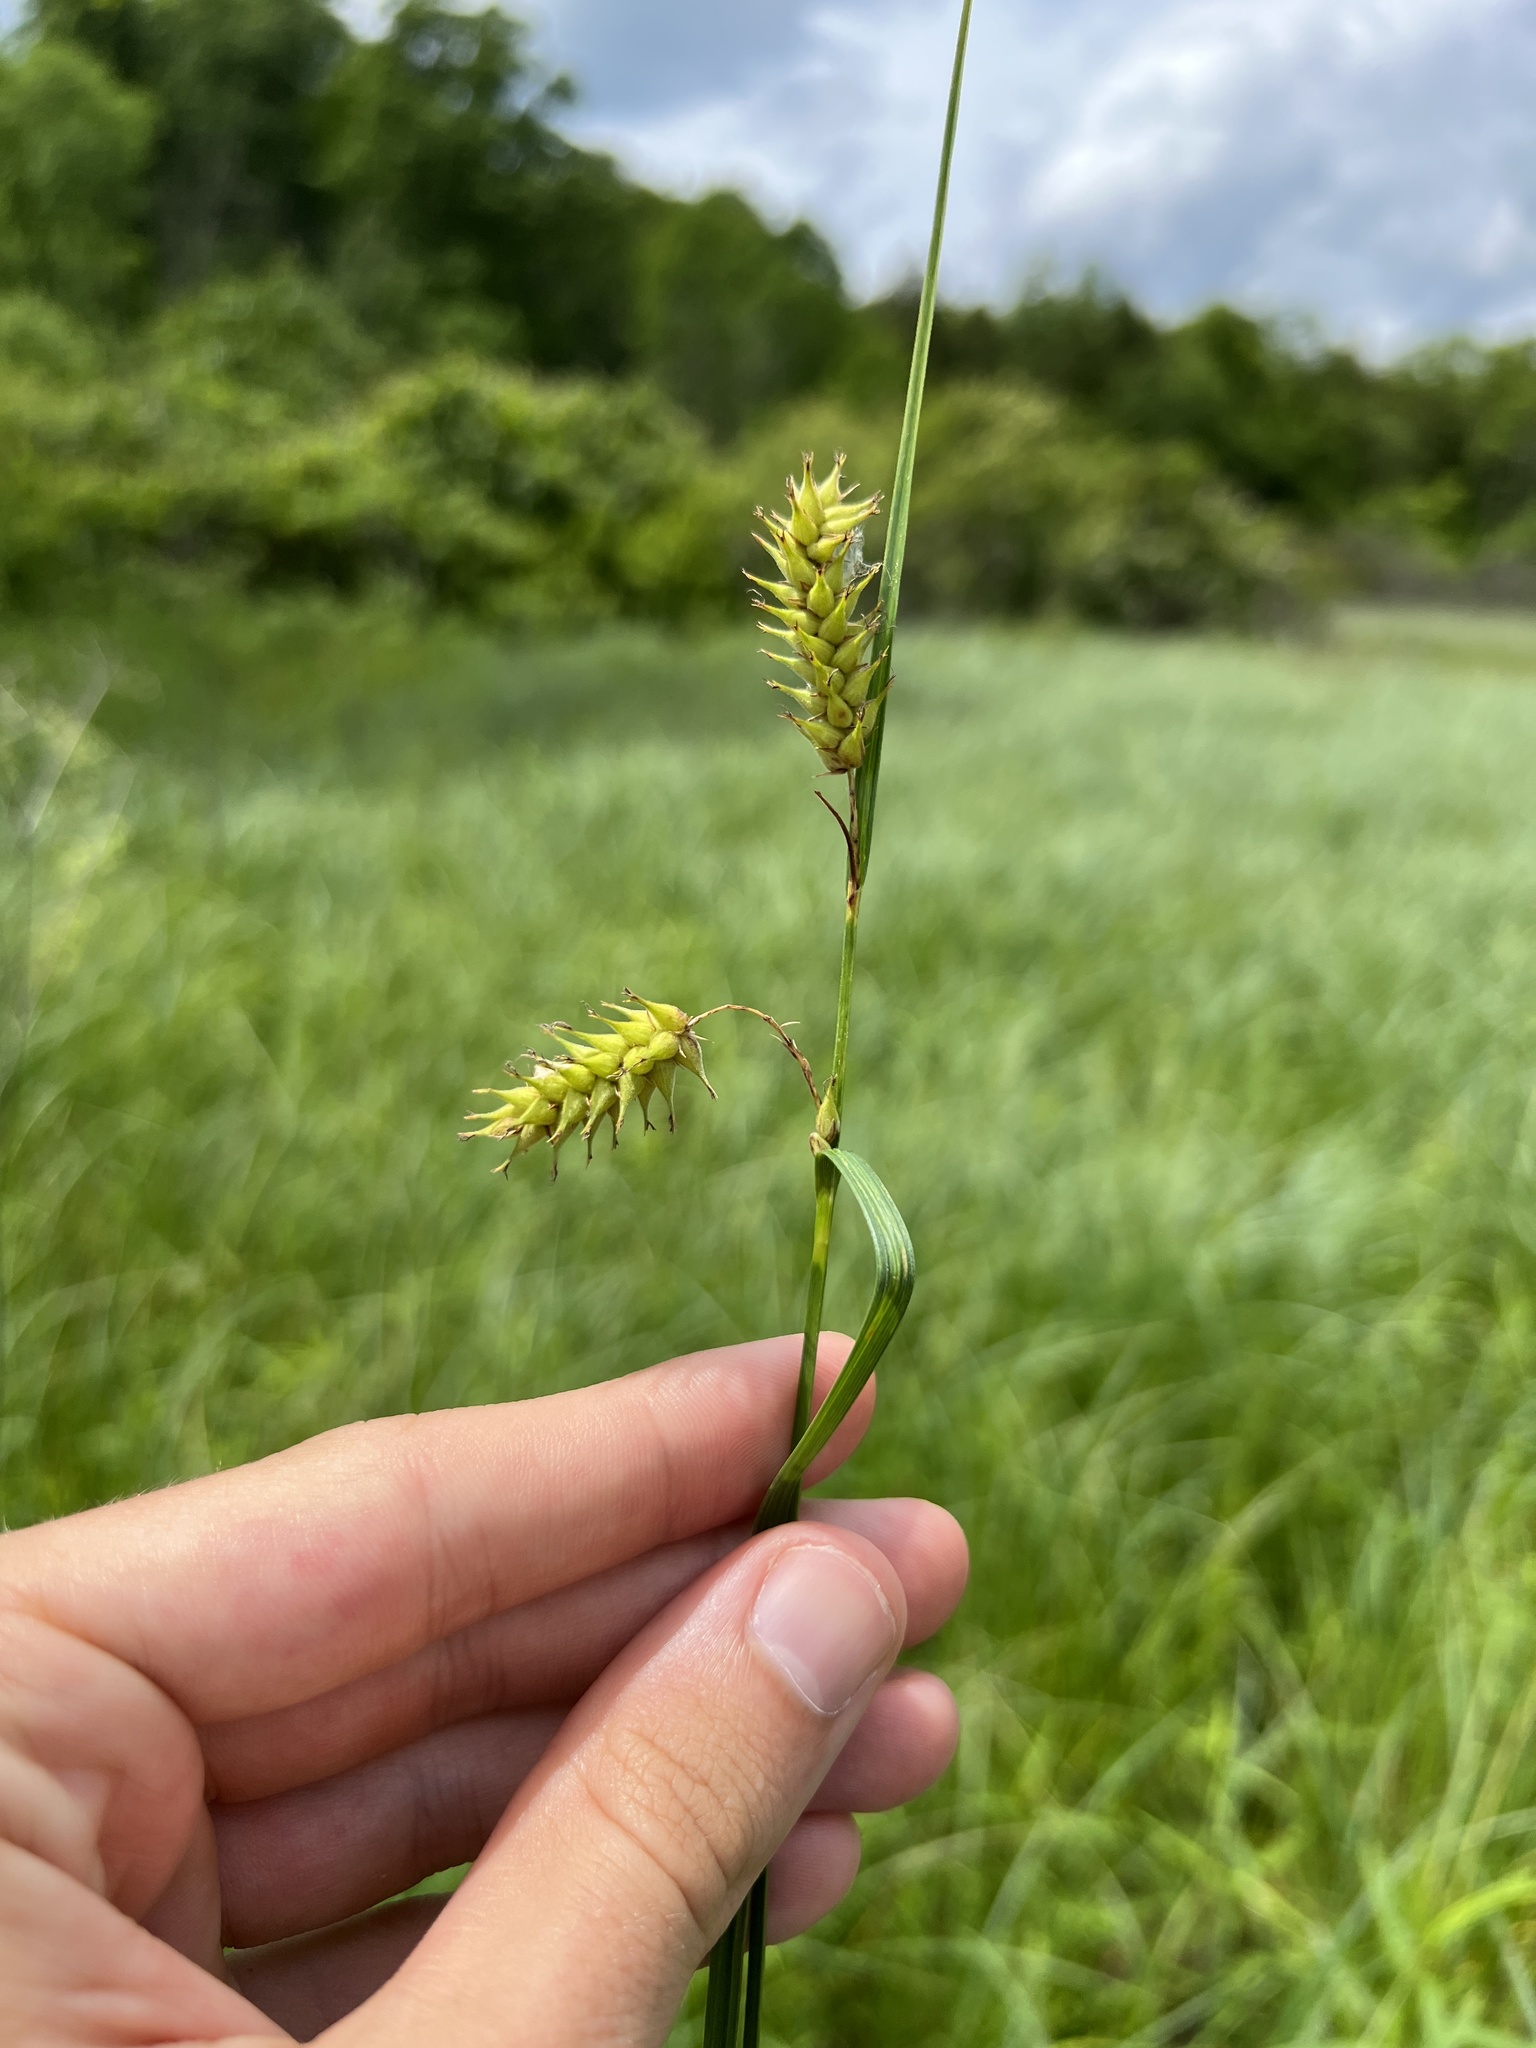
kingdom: Plantae
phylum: Tracheophyta
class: Liliopsida
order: Poales
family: Cyperaceae
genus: Carex
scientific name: Carex trichocarpa
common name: Hairy-fruited lake sedge
